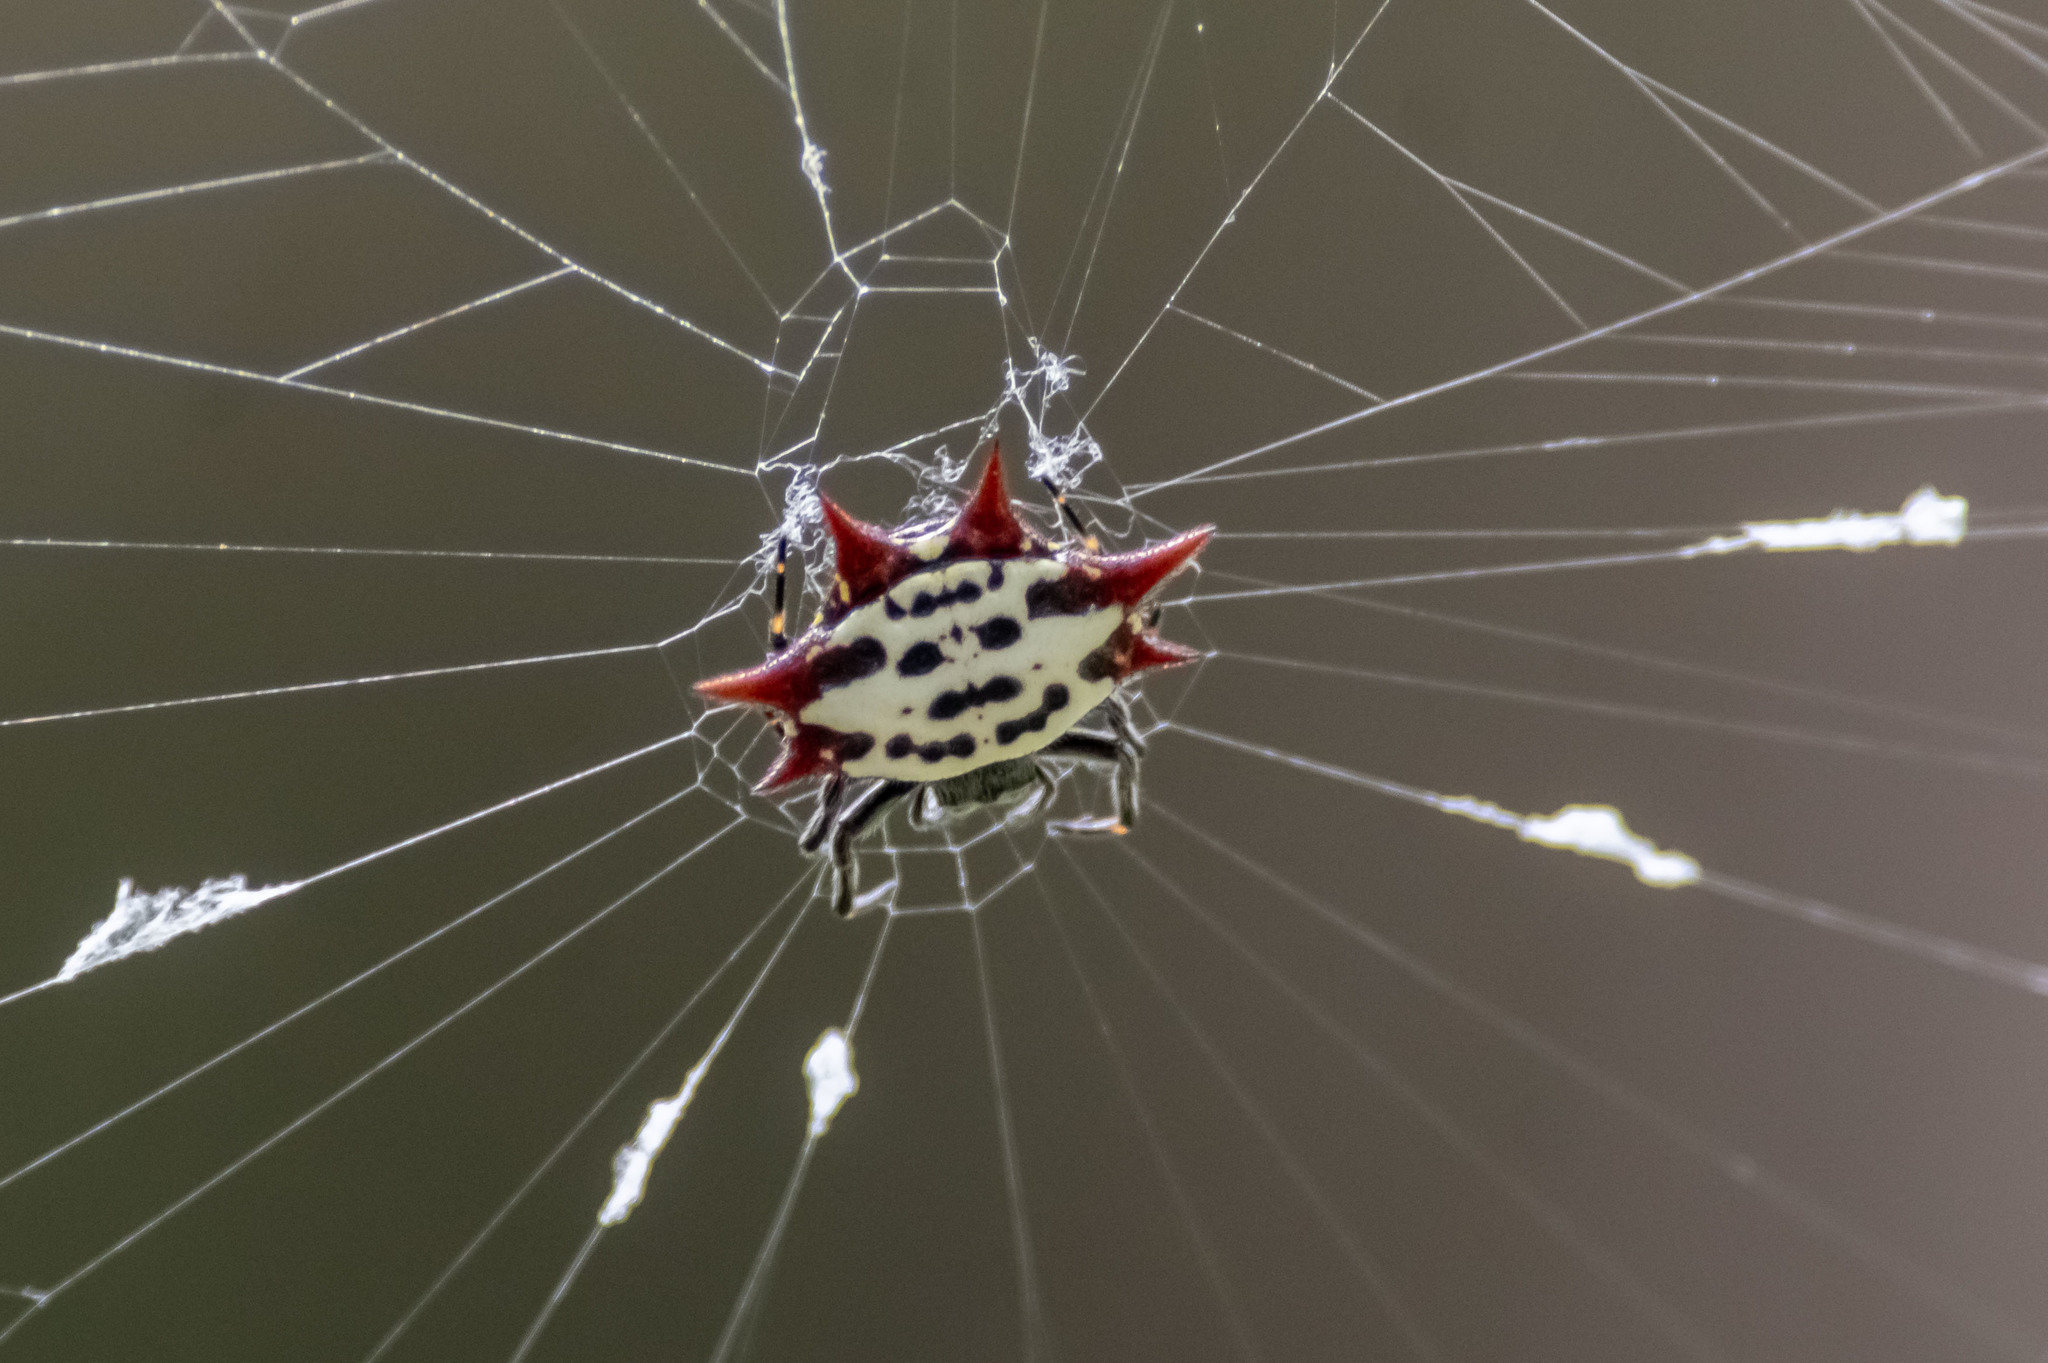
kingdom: Animalia
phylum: Arthropoda
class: Arachnida
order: Araneae
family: Araneidae
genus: Gasteracantha
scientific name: Gasteracantha cancriformis
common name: Orb weavers
